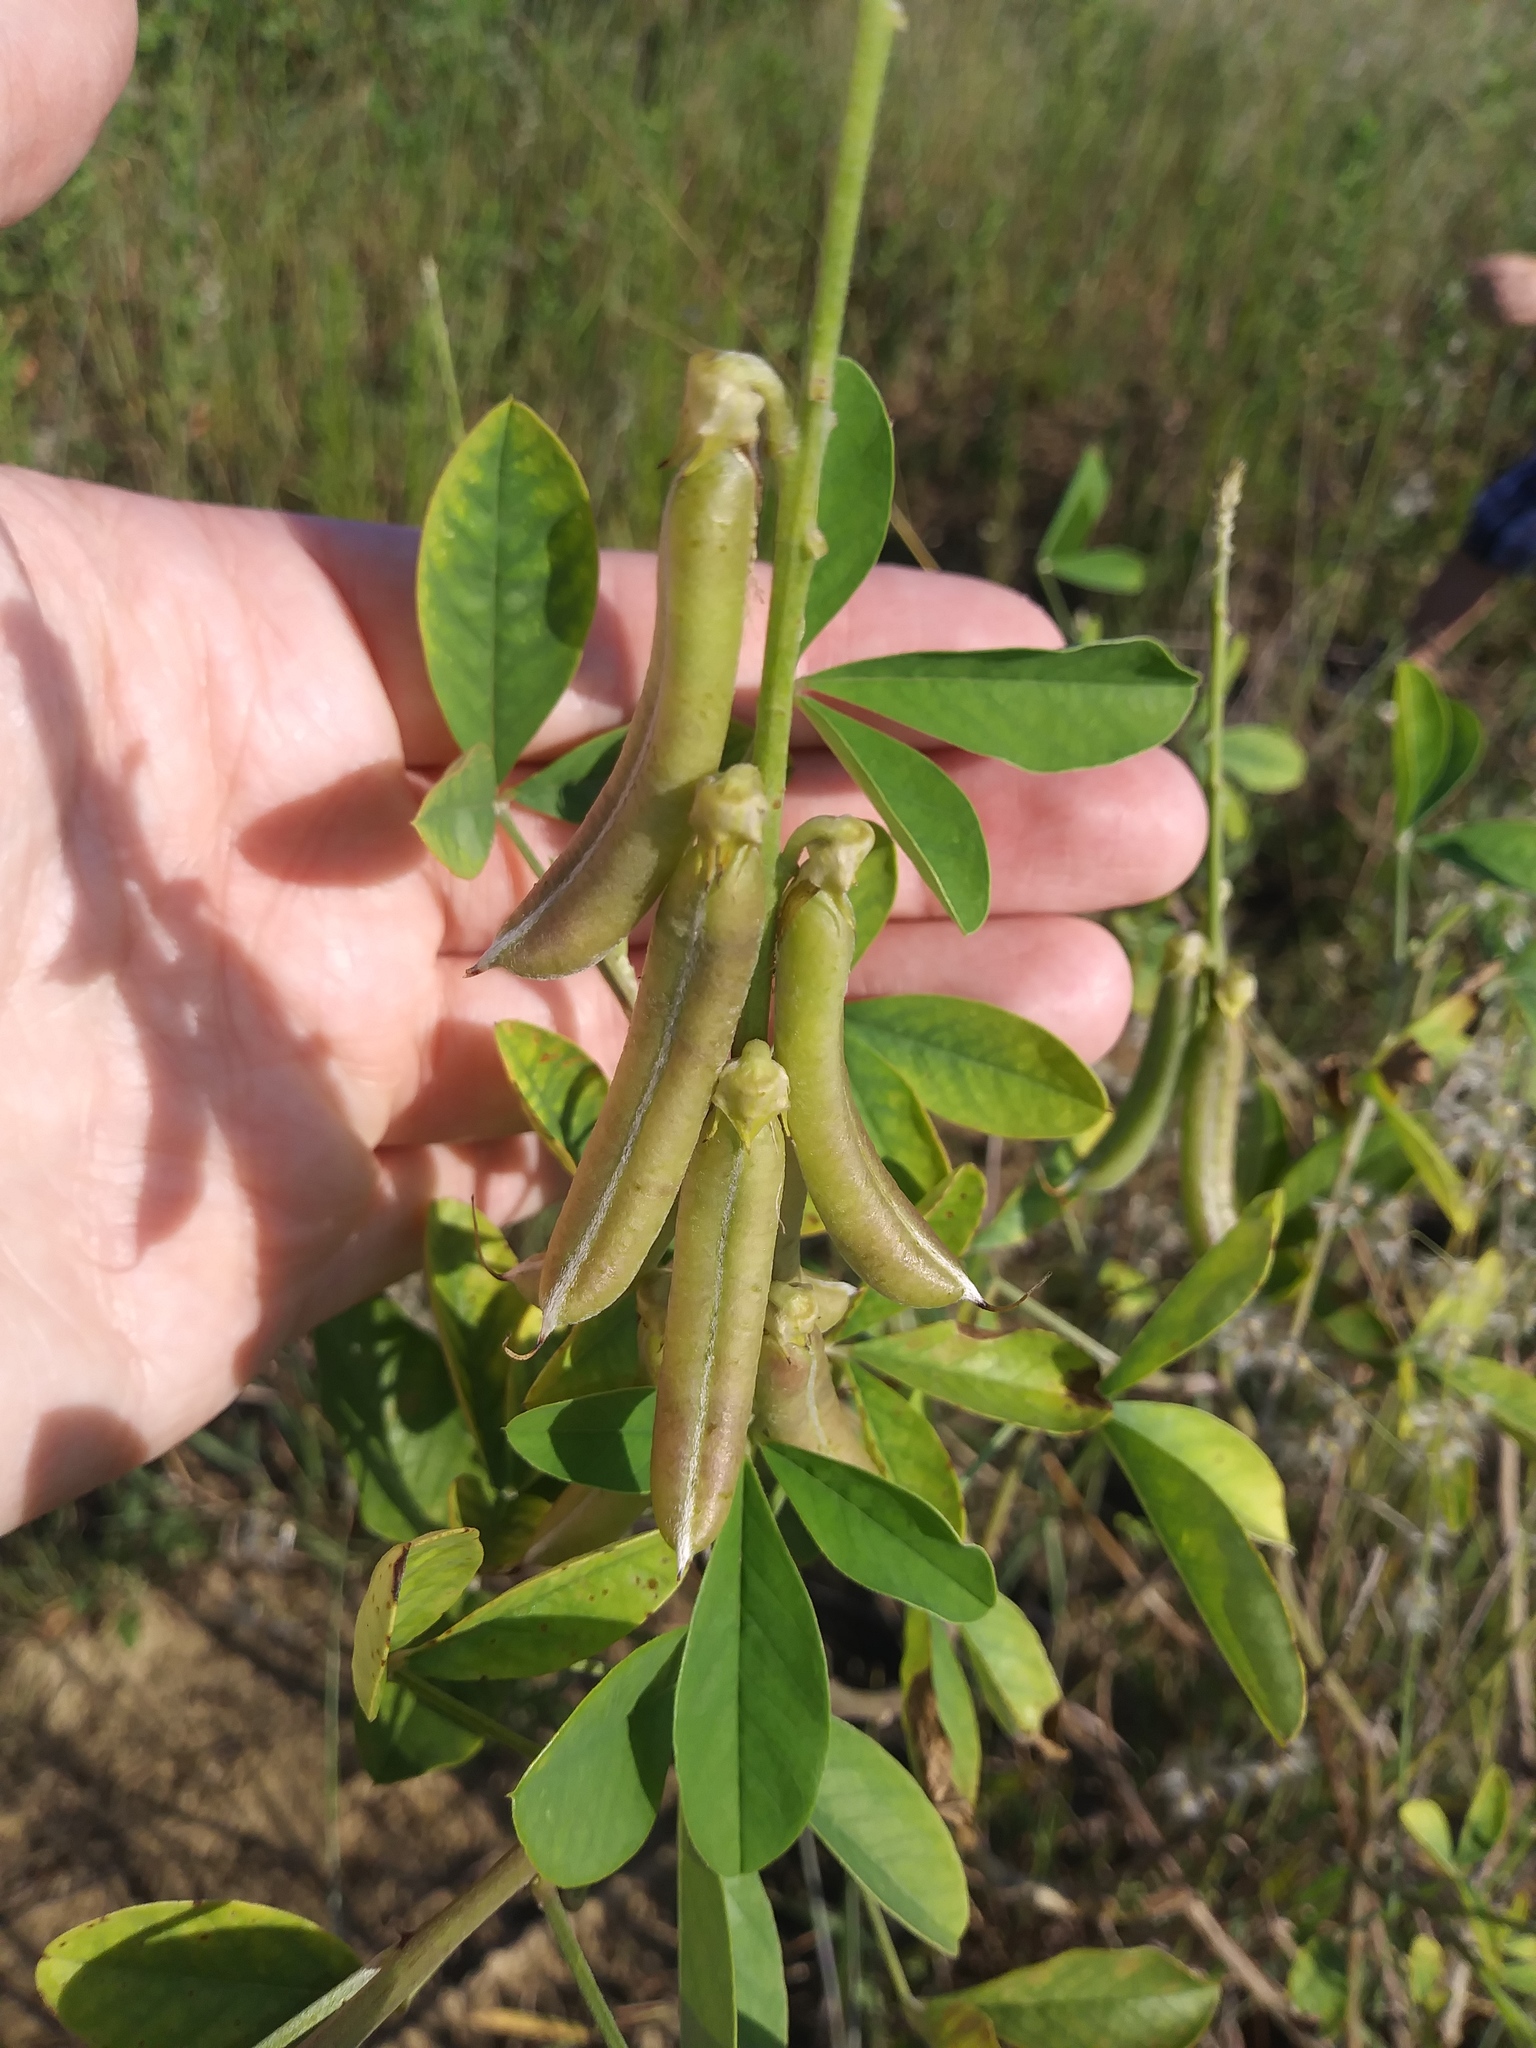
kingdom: Plantae
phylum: Tracheophyta
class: Magnoliopsida
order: Fabales
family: Fabaceae
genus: Crotalaria
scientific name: Crotalaria spectabilis
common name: Showy rattlebox
